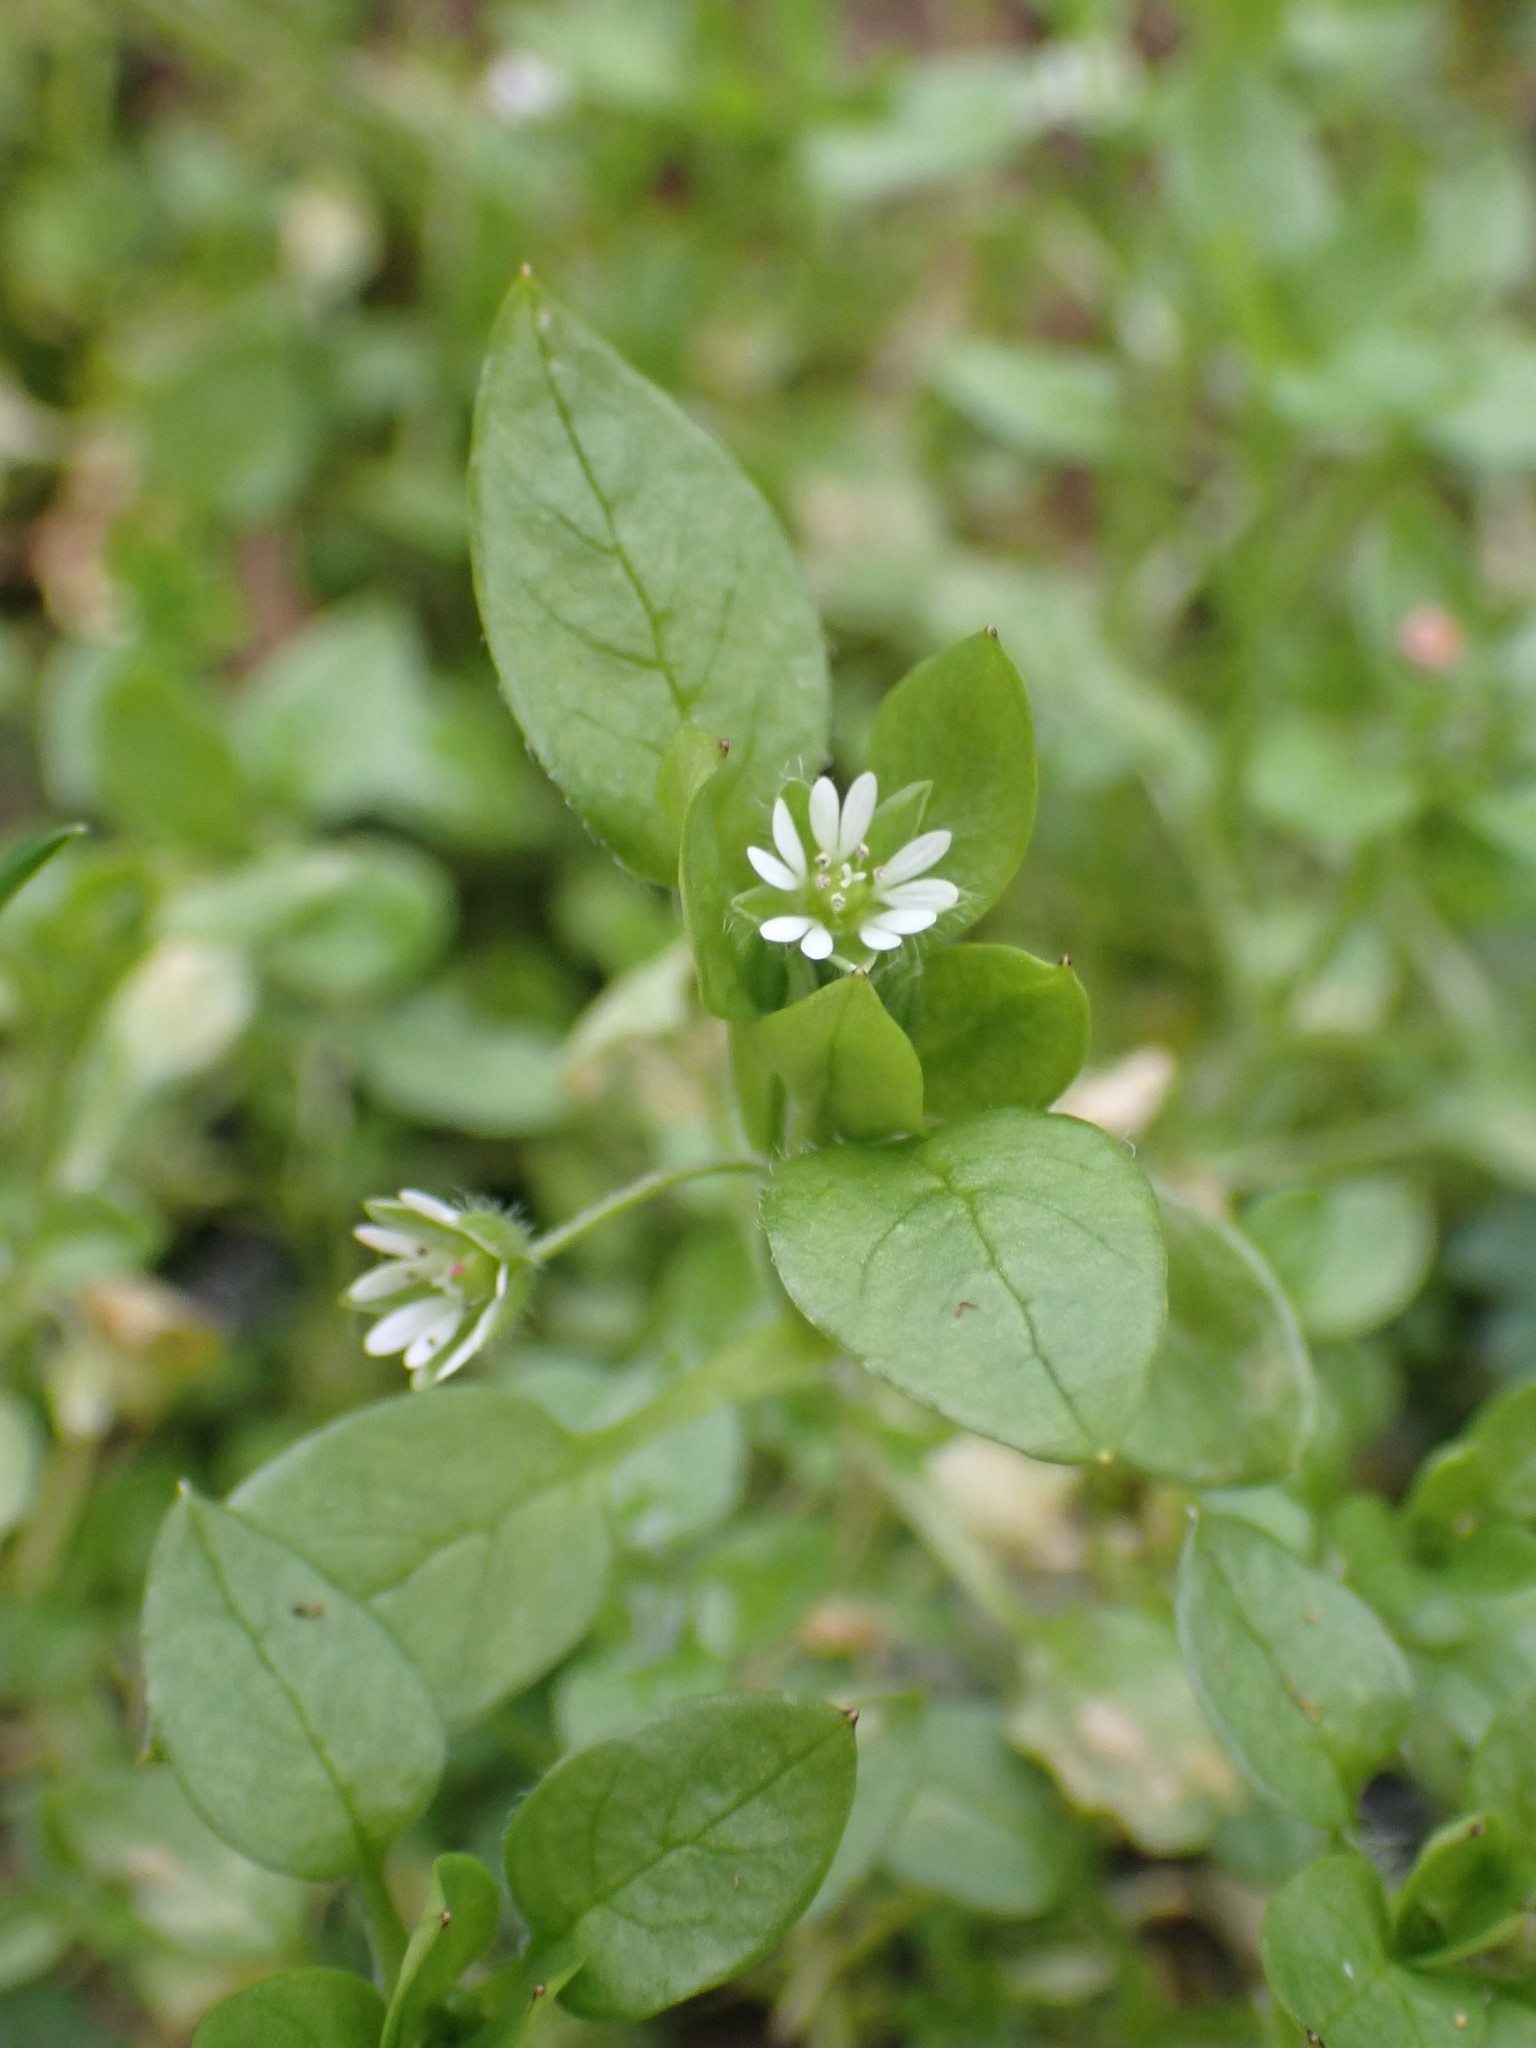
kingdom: Plantae
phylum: Tracheophyta
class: Magnoliopsida
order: Caryophyllales
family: Caryophyllaceae
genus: Stellaria
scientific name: Stellaria media
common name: Common chickweed
